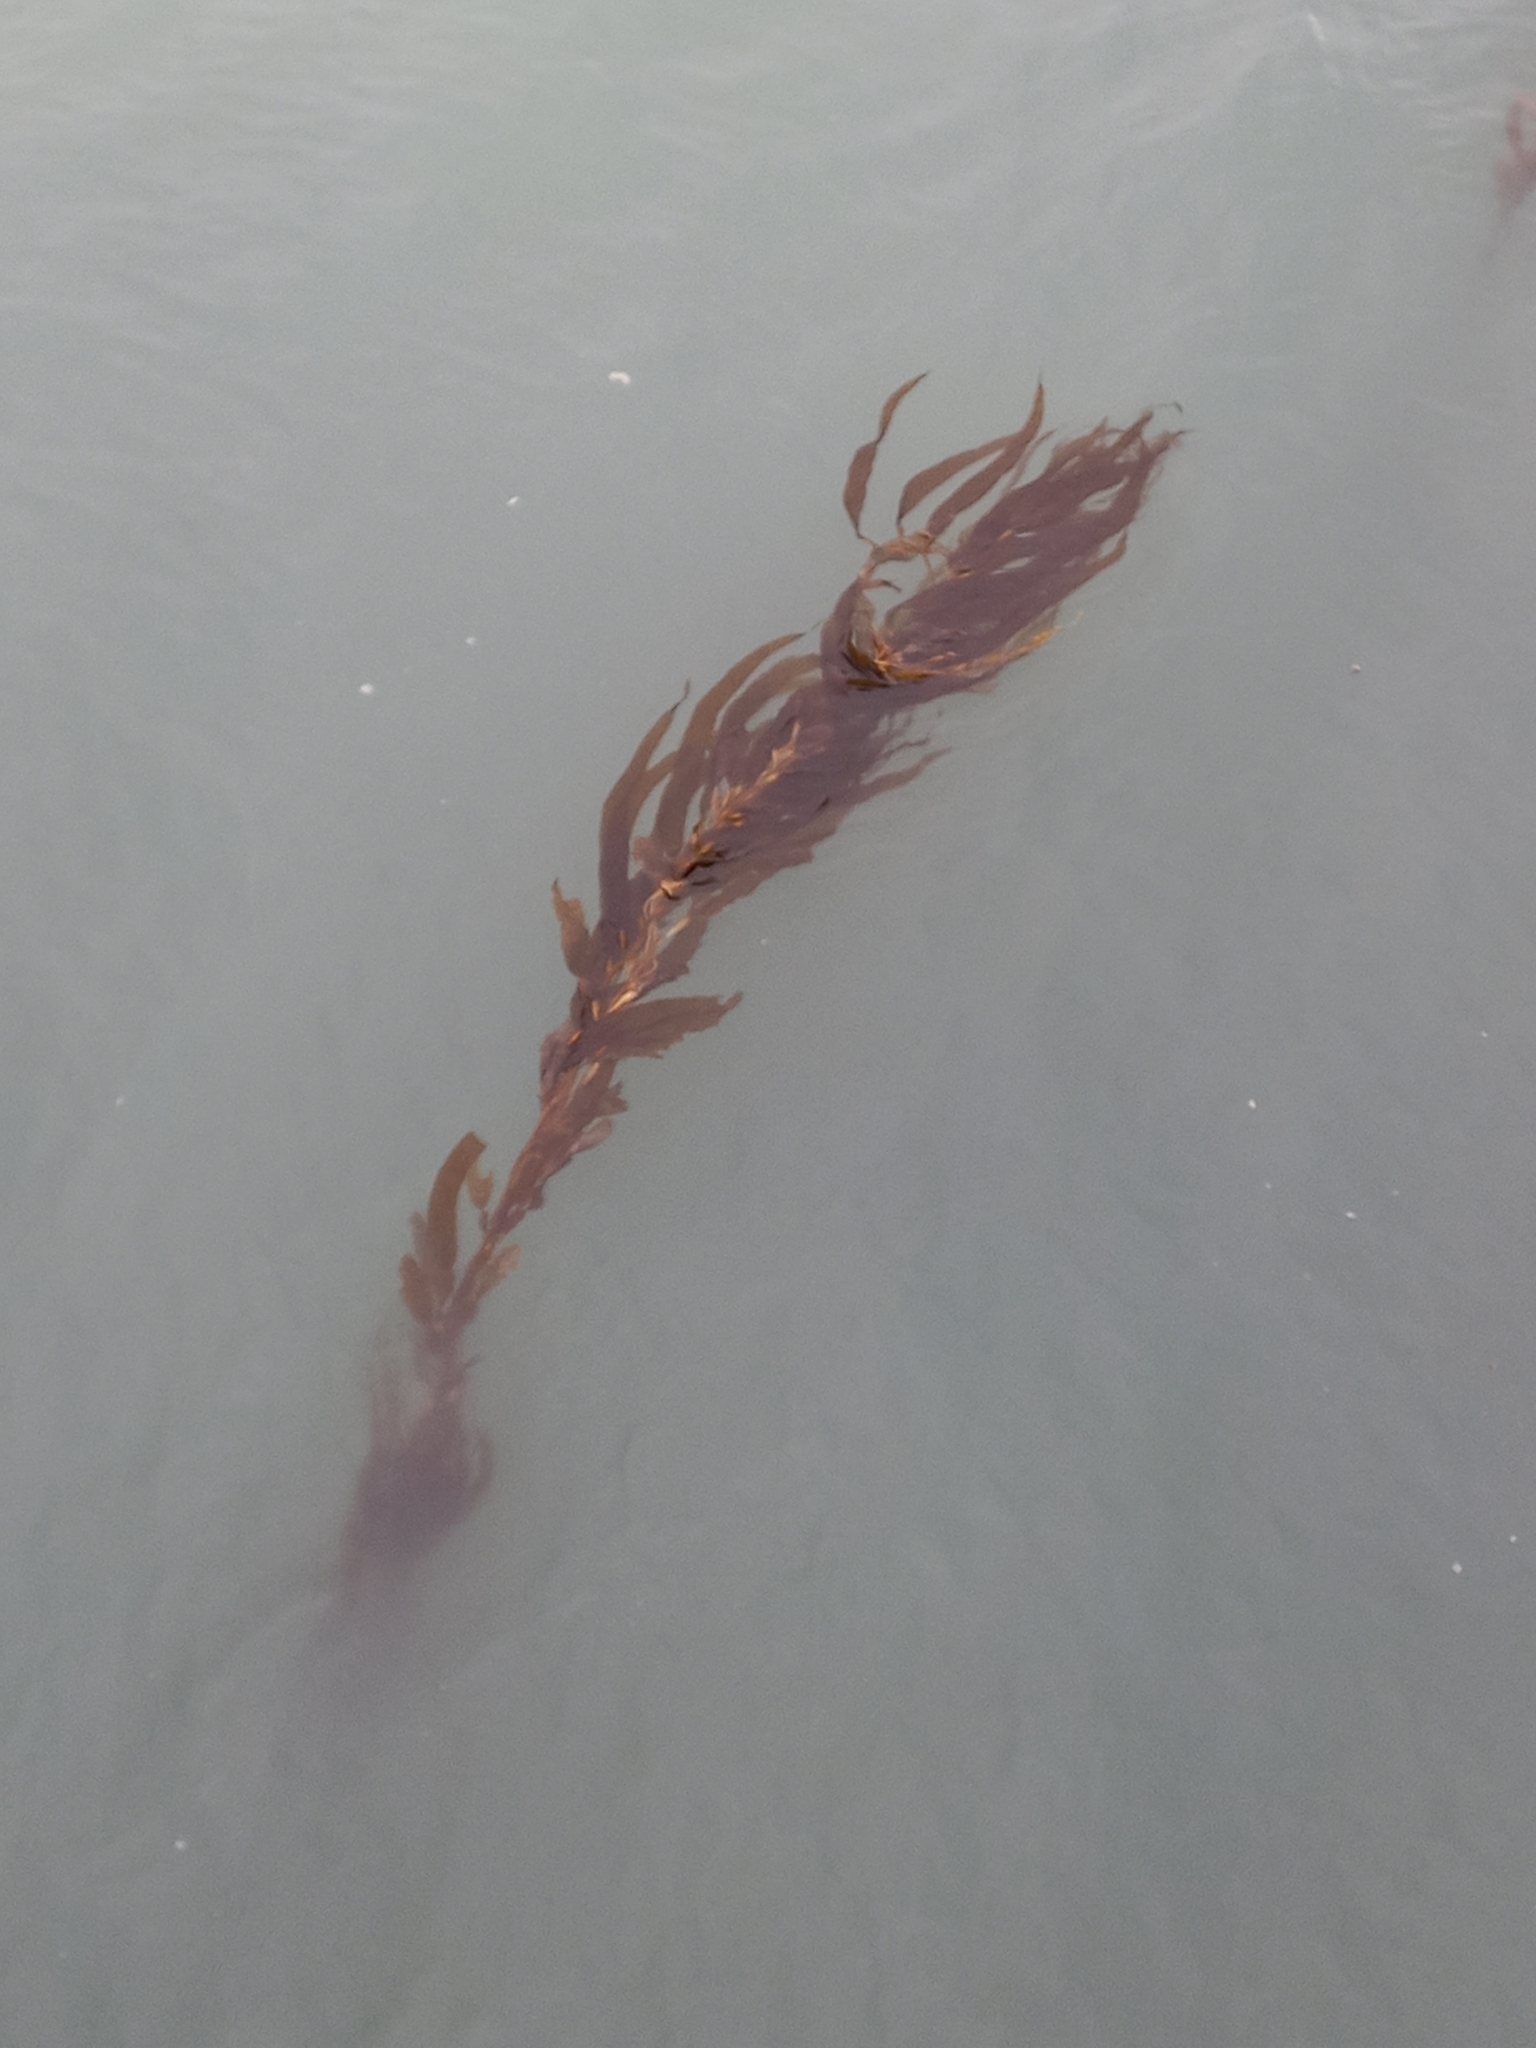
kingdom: Chromista
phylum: Ochrophyta
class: Phaeophyceae
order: Laminariales
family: Laminariaceae
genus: Macrocystis
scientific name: Macrocystis pyrifera
